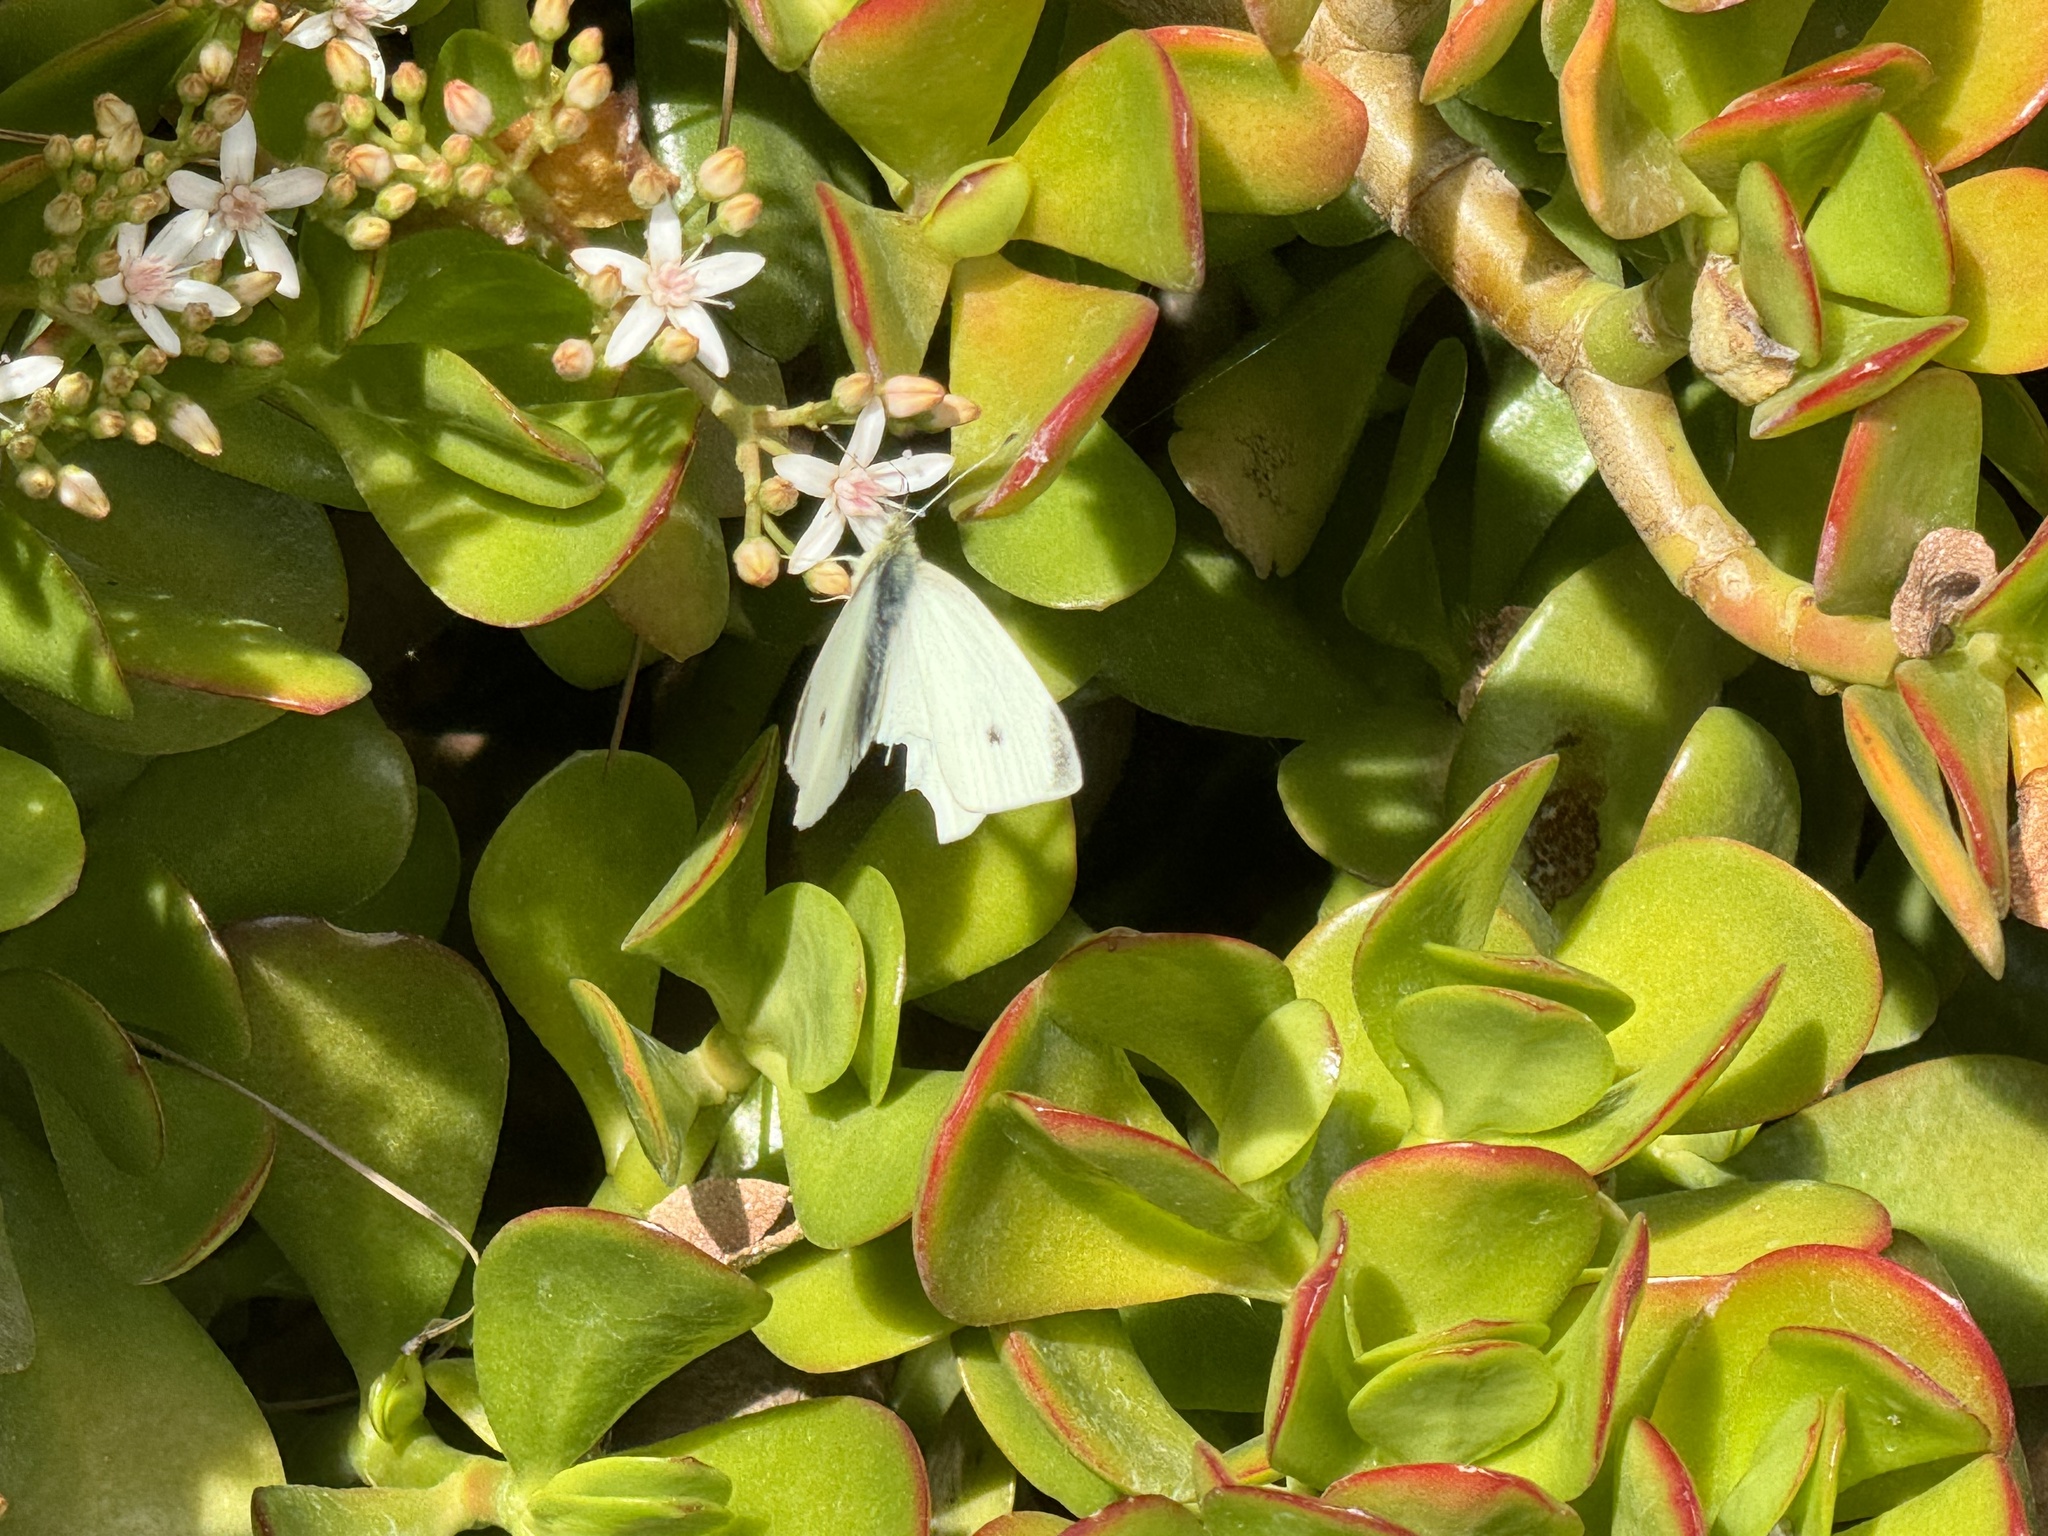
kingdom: Animalia
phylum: Arthropoda
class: Insecta
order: Lepidoptera
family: Pieridae
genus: Pieris
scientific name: Pieris rapae
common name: Small white
